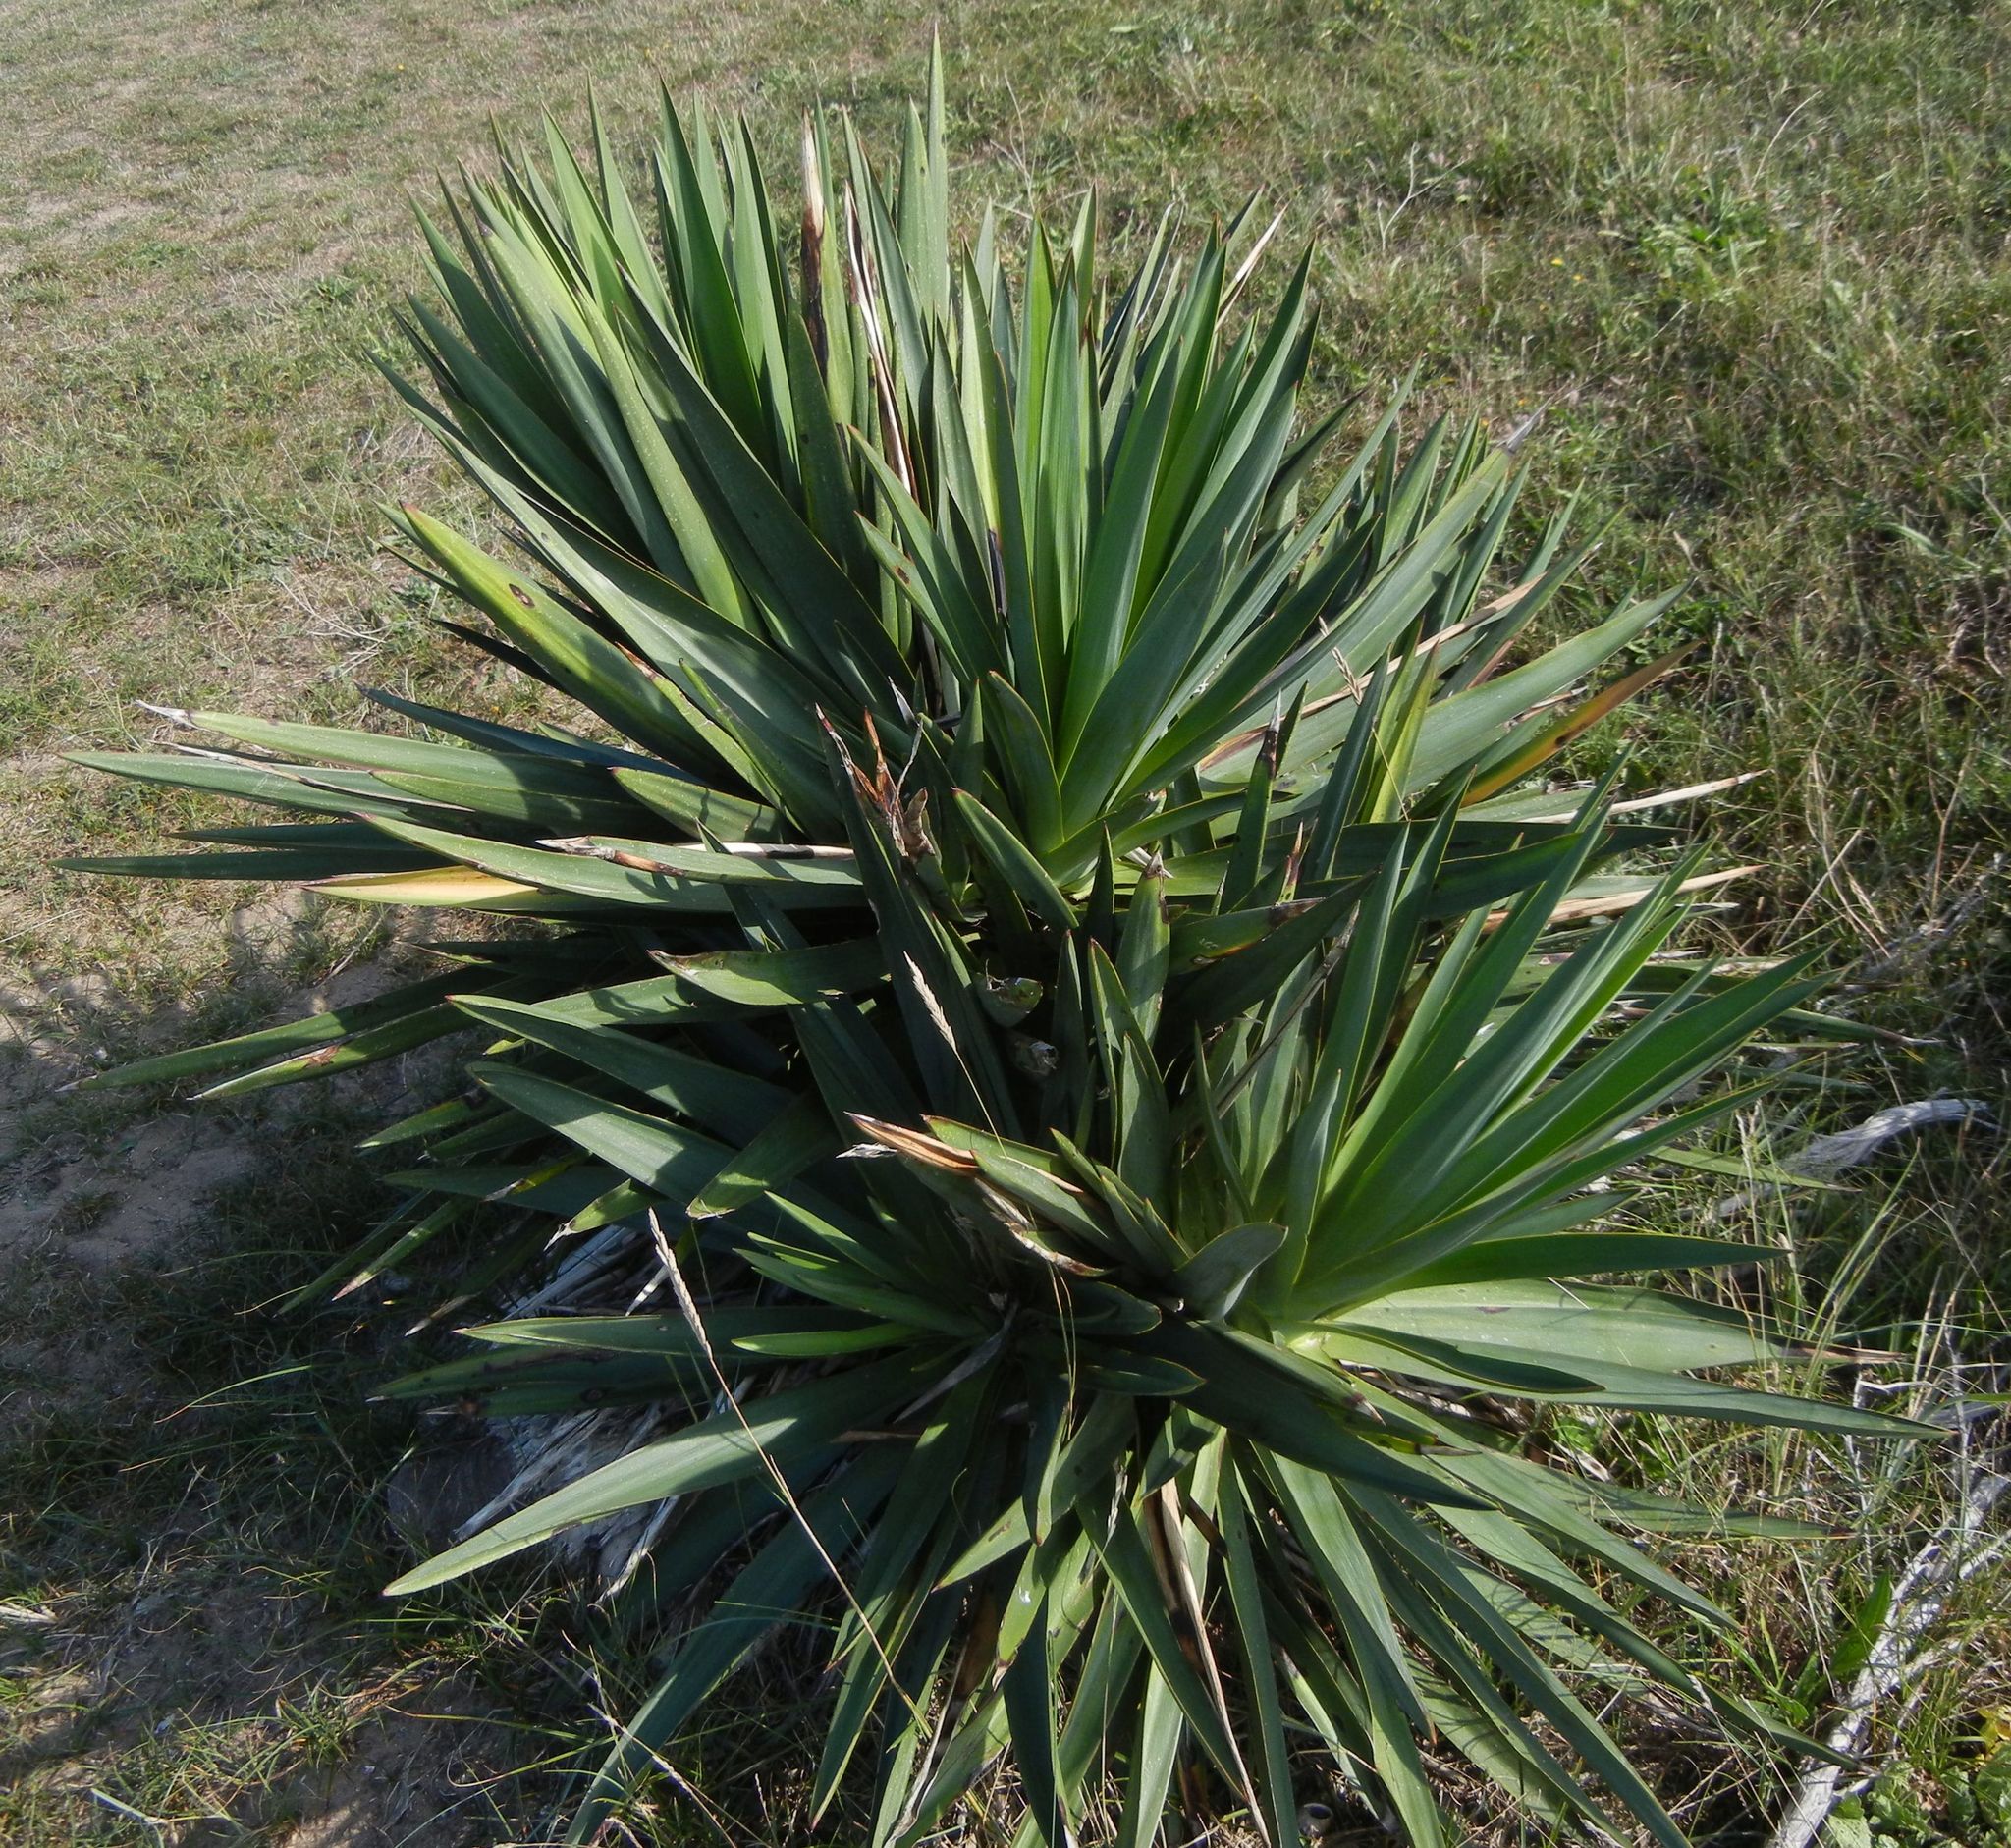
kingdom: Plantae
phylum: Tracheophyta
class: Liliopsida
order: Asparagales
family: Asparagaceae
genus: Yucca
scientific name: Yucca gloriosa
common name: Spanish-dagger
